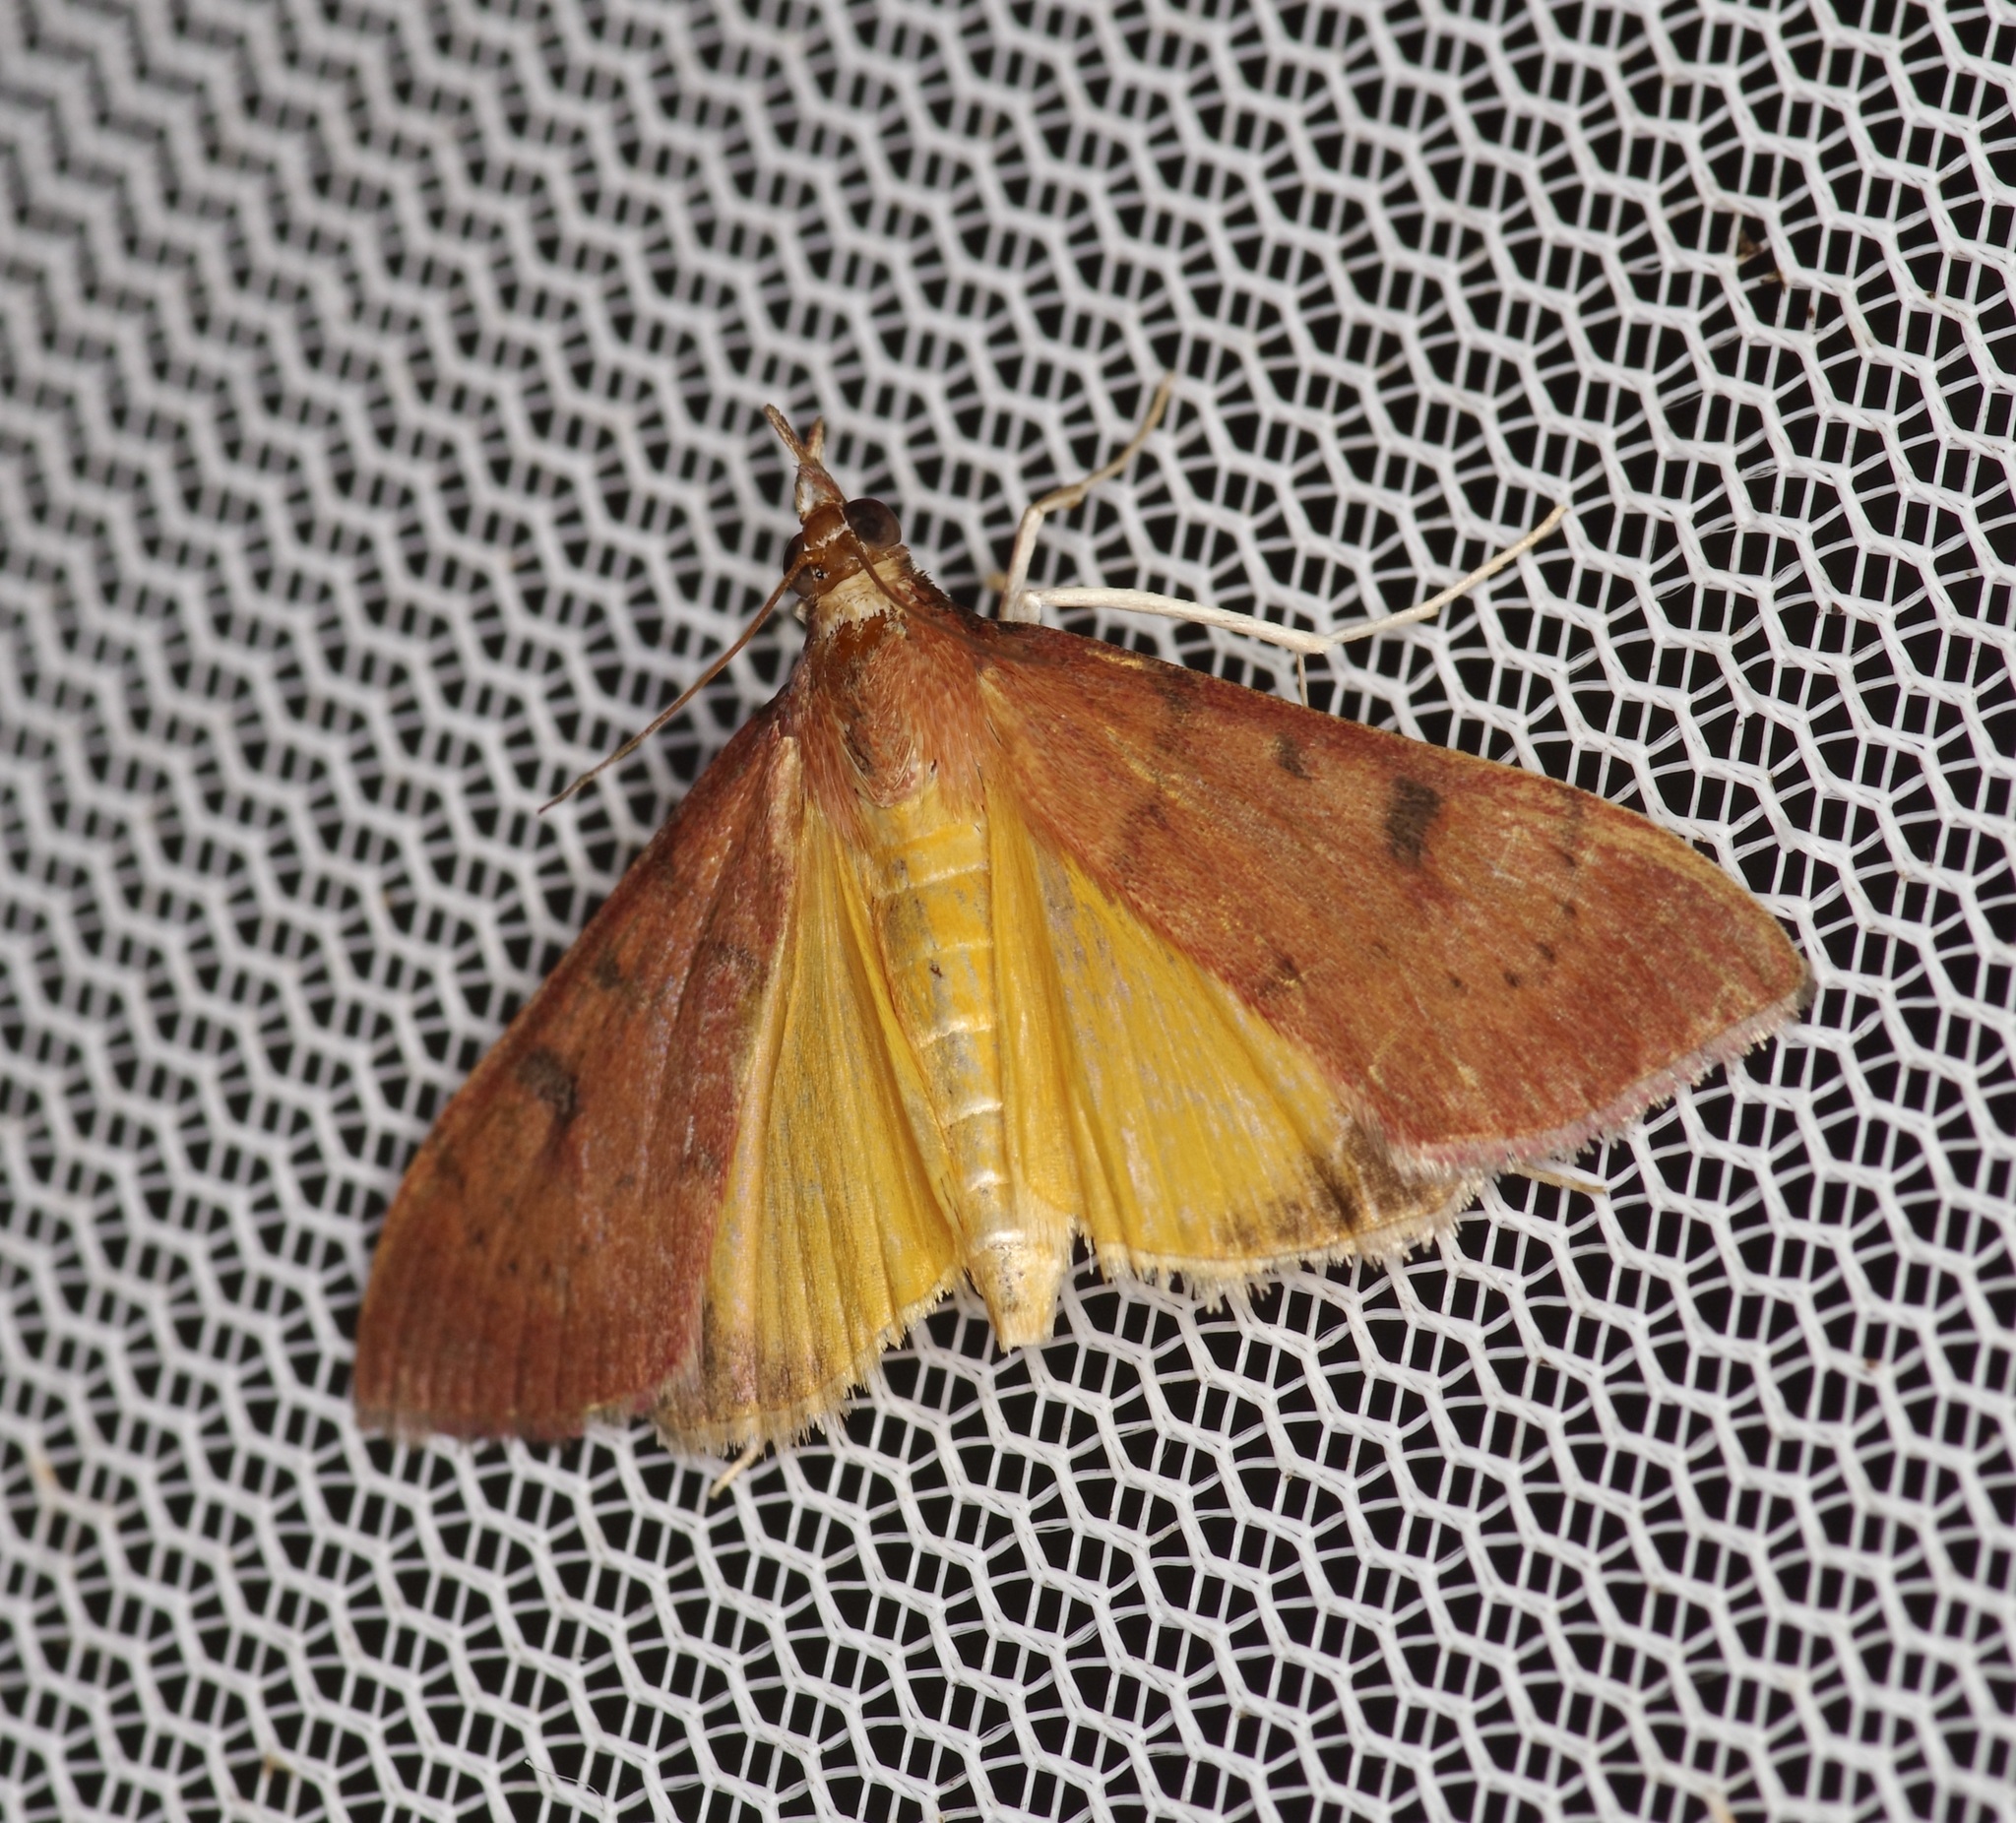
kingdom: Animalia
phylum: Arthropoda
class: Insecta
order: Lepidoptera
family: Crambidae
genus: Uresiphita
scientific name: Uresiphita reversalis
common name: Genista broom moth
